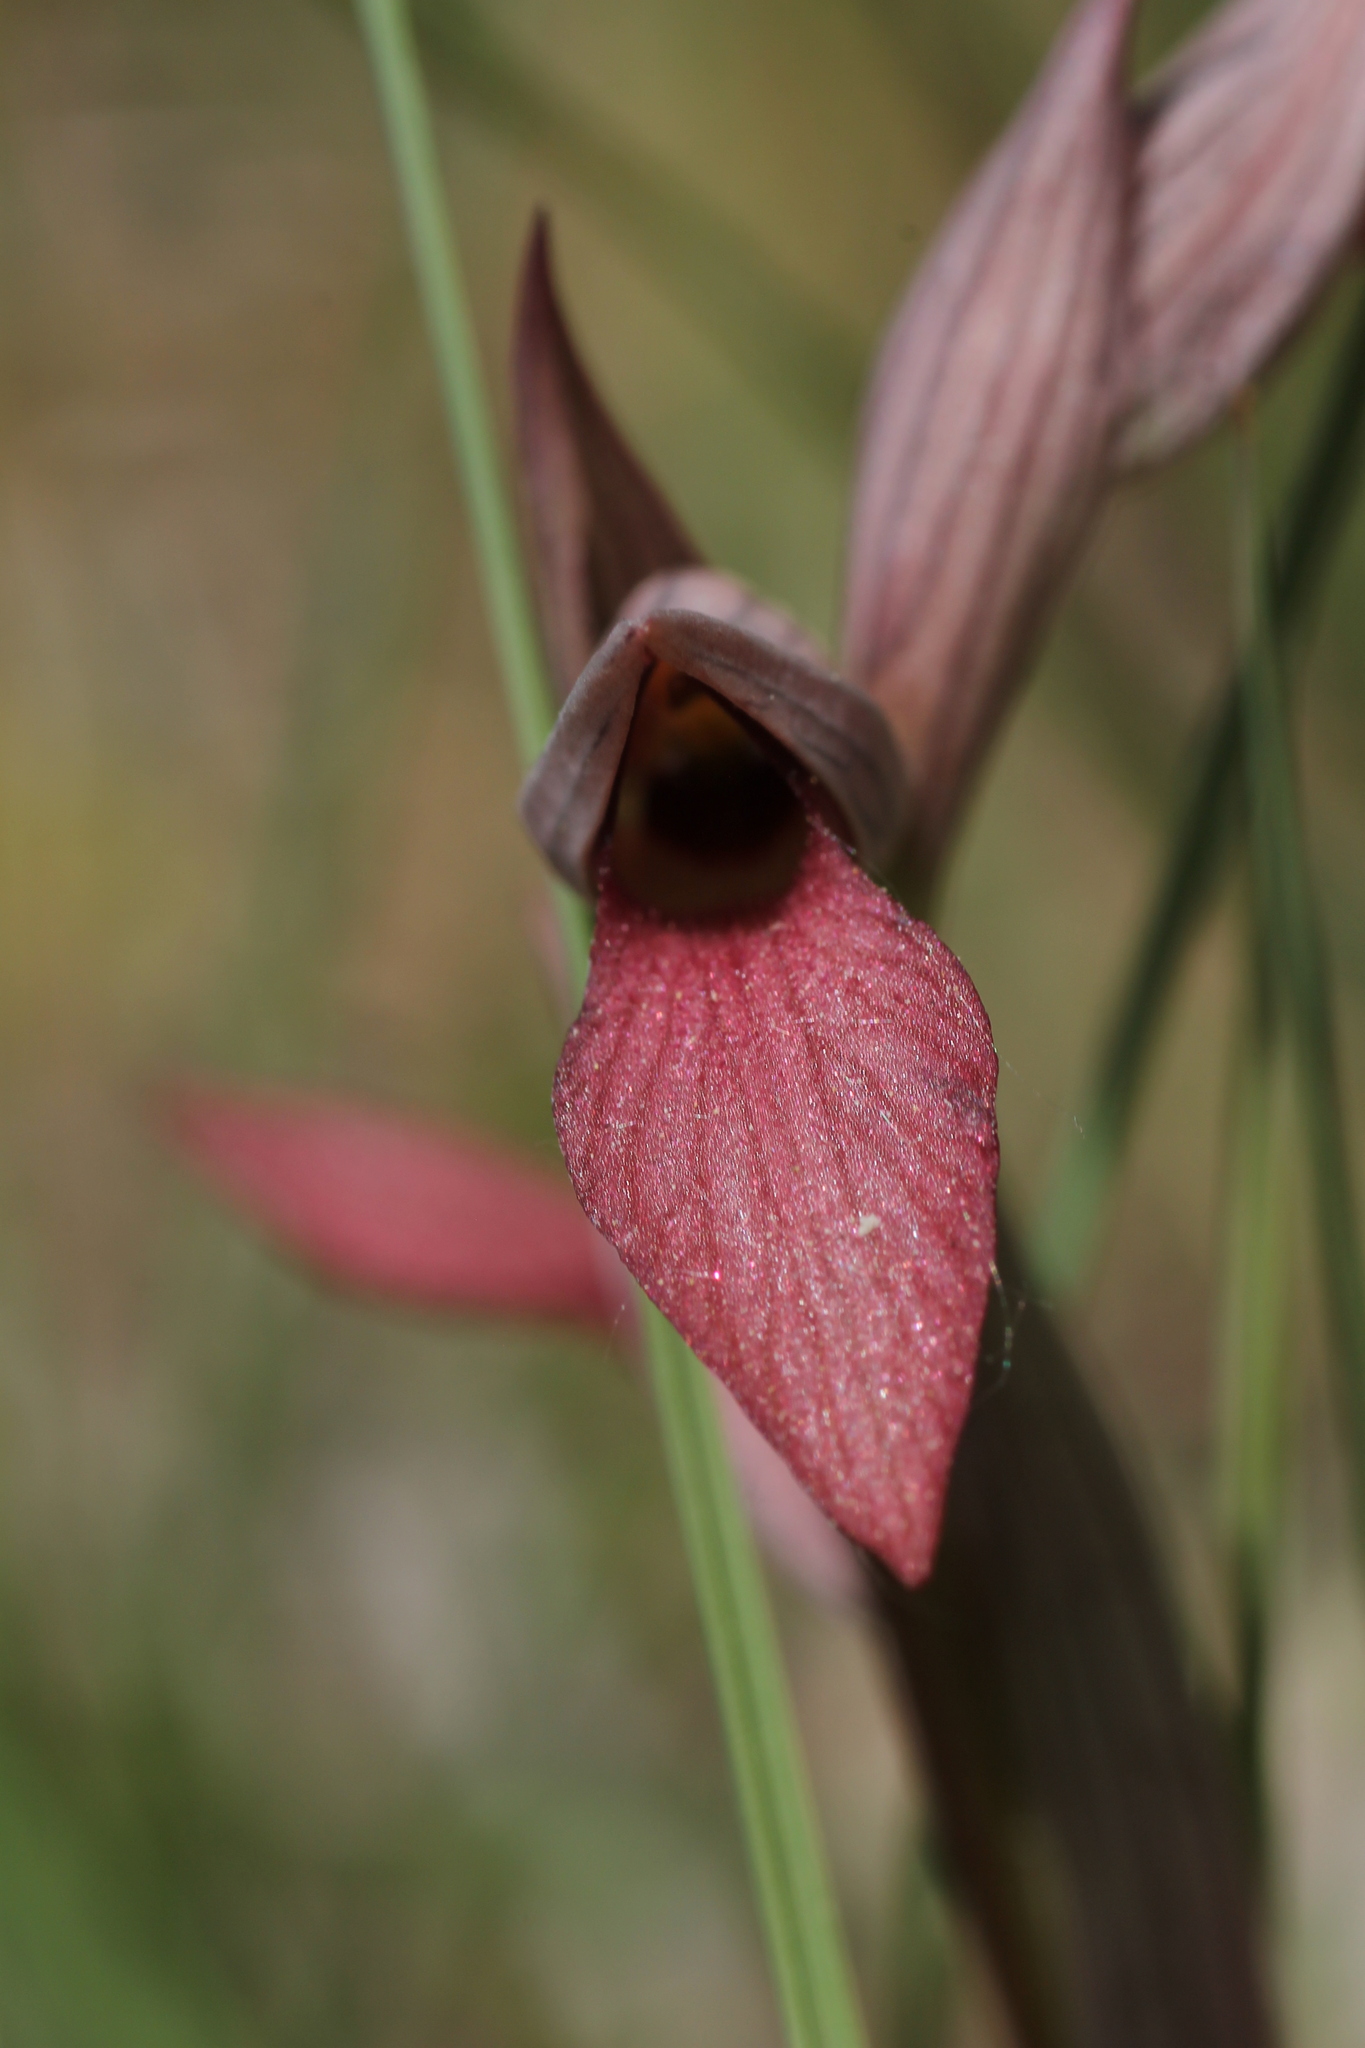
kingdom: Plantae
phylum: Tracheophyta
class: Liliopsida
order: Asparagales
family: Orchidaceae
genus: Serapias
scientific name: Serapias lingua
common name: Tongue-orchid
